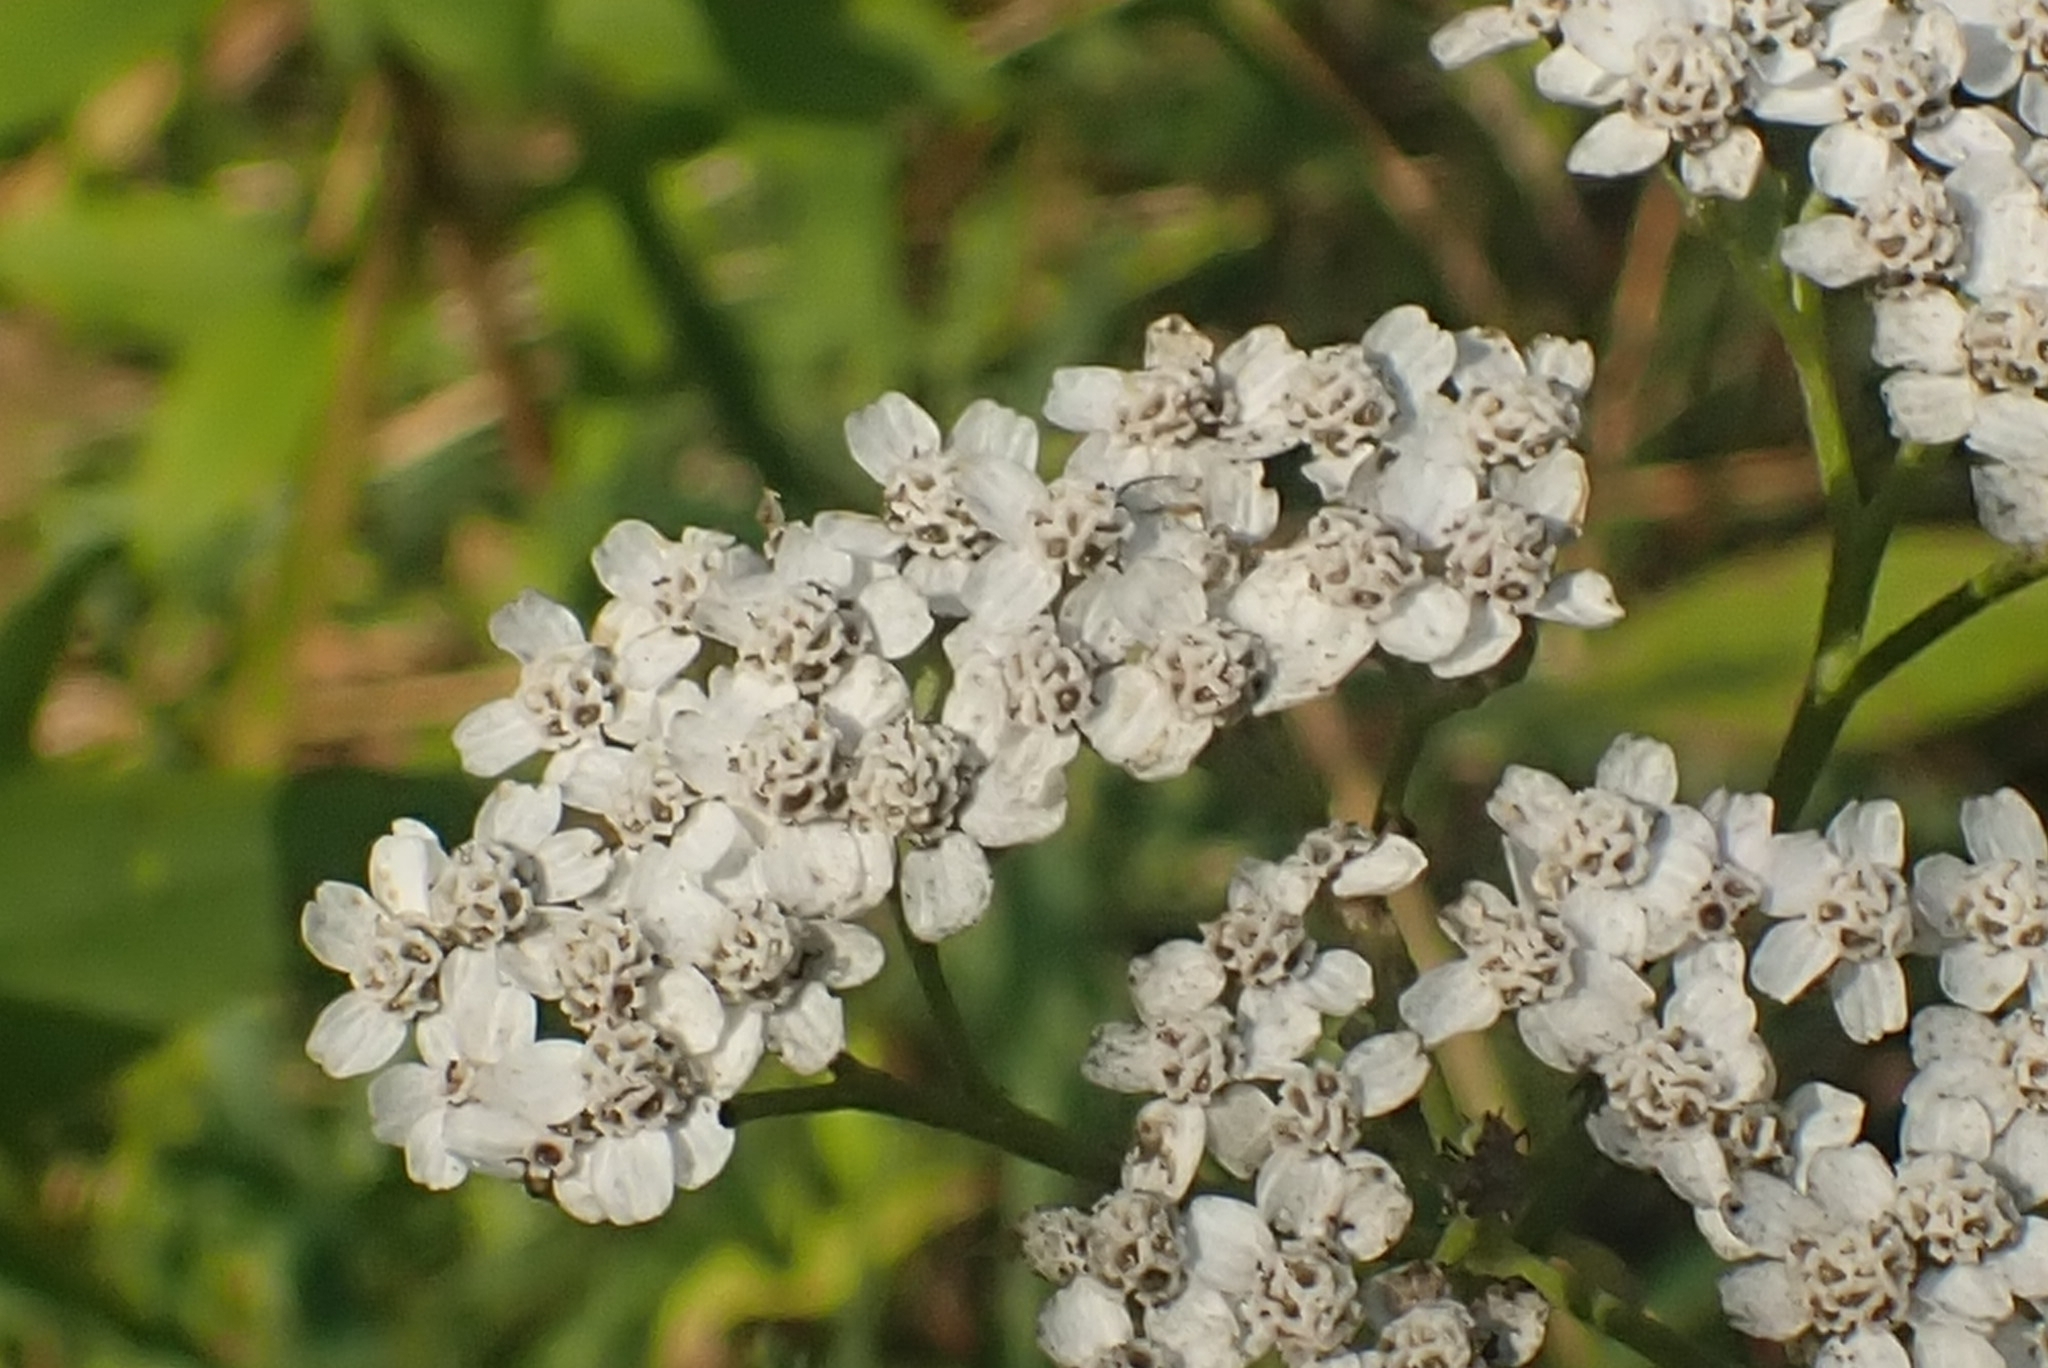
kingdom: Plantae
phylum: Tracheophyta
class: Magnoliopsida
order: Asterales
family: Asteraceae
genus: Achillea
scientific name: Achillea millefolium
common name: Yarrow
